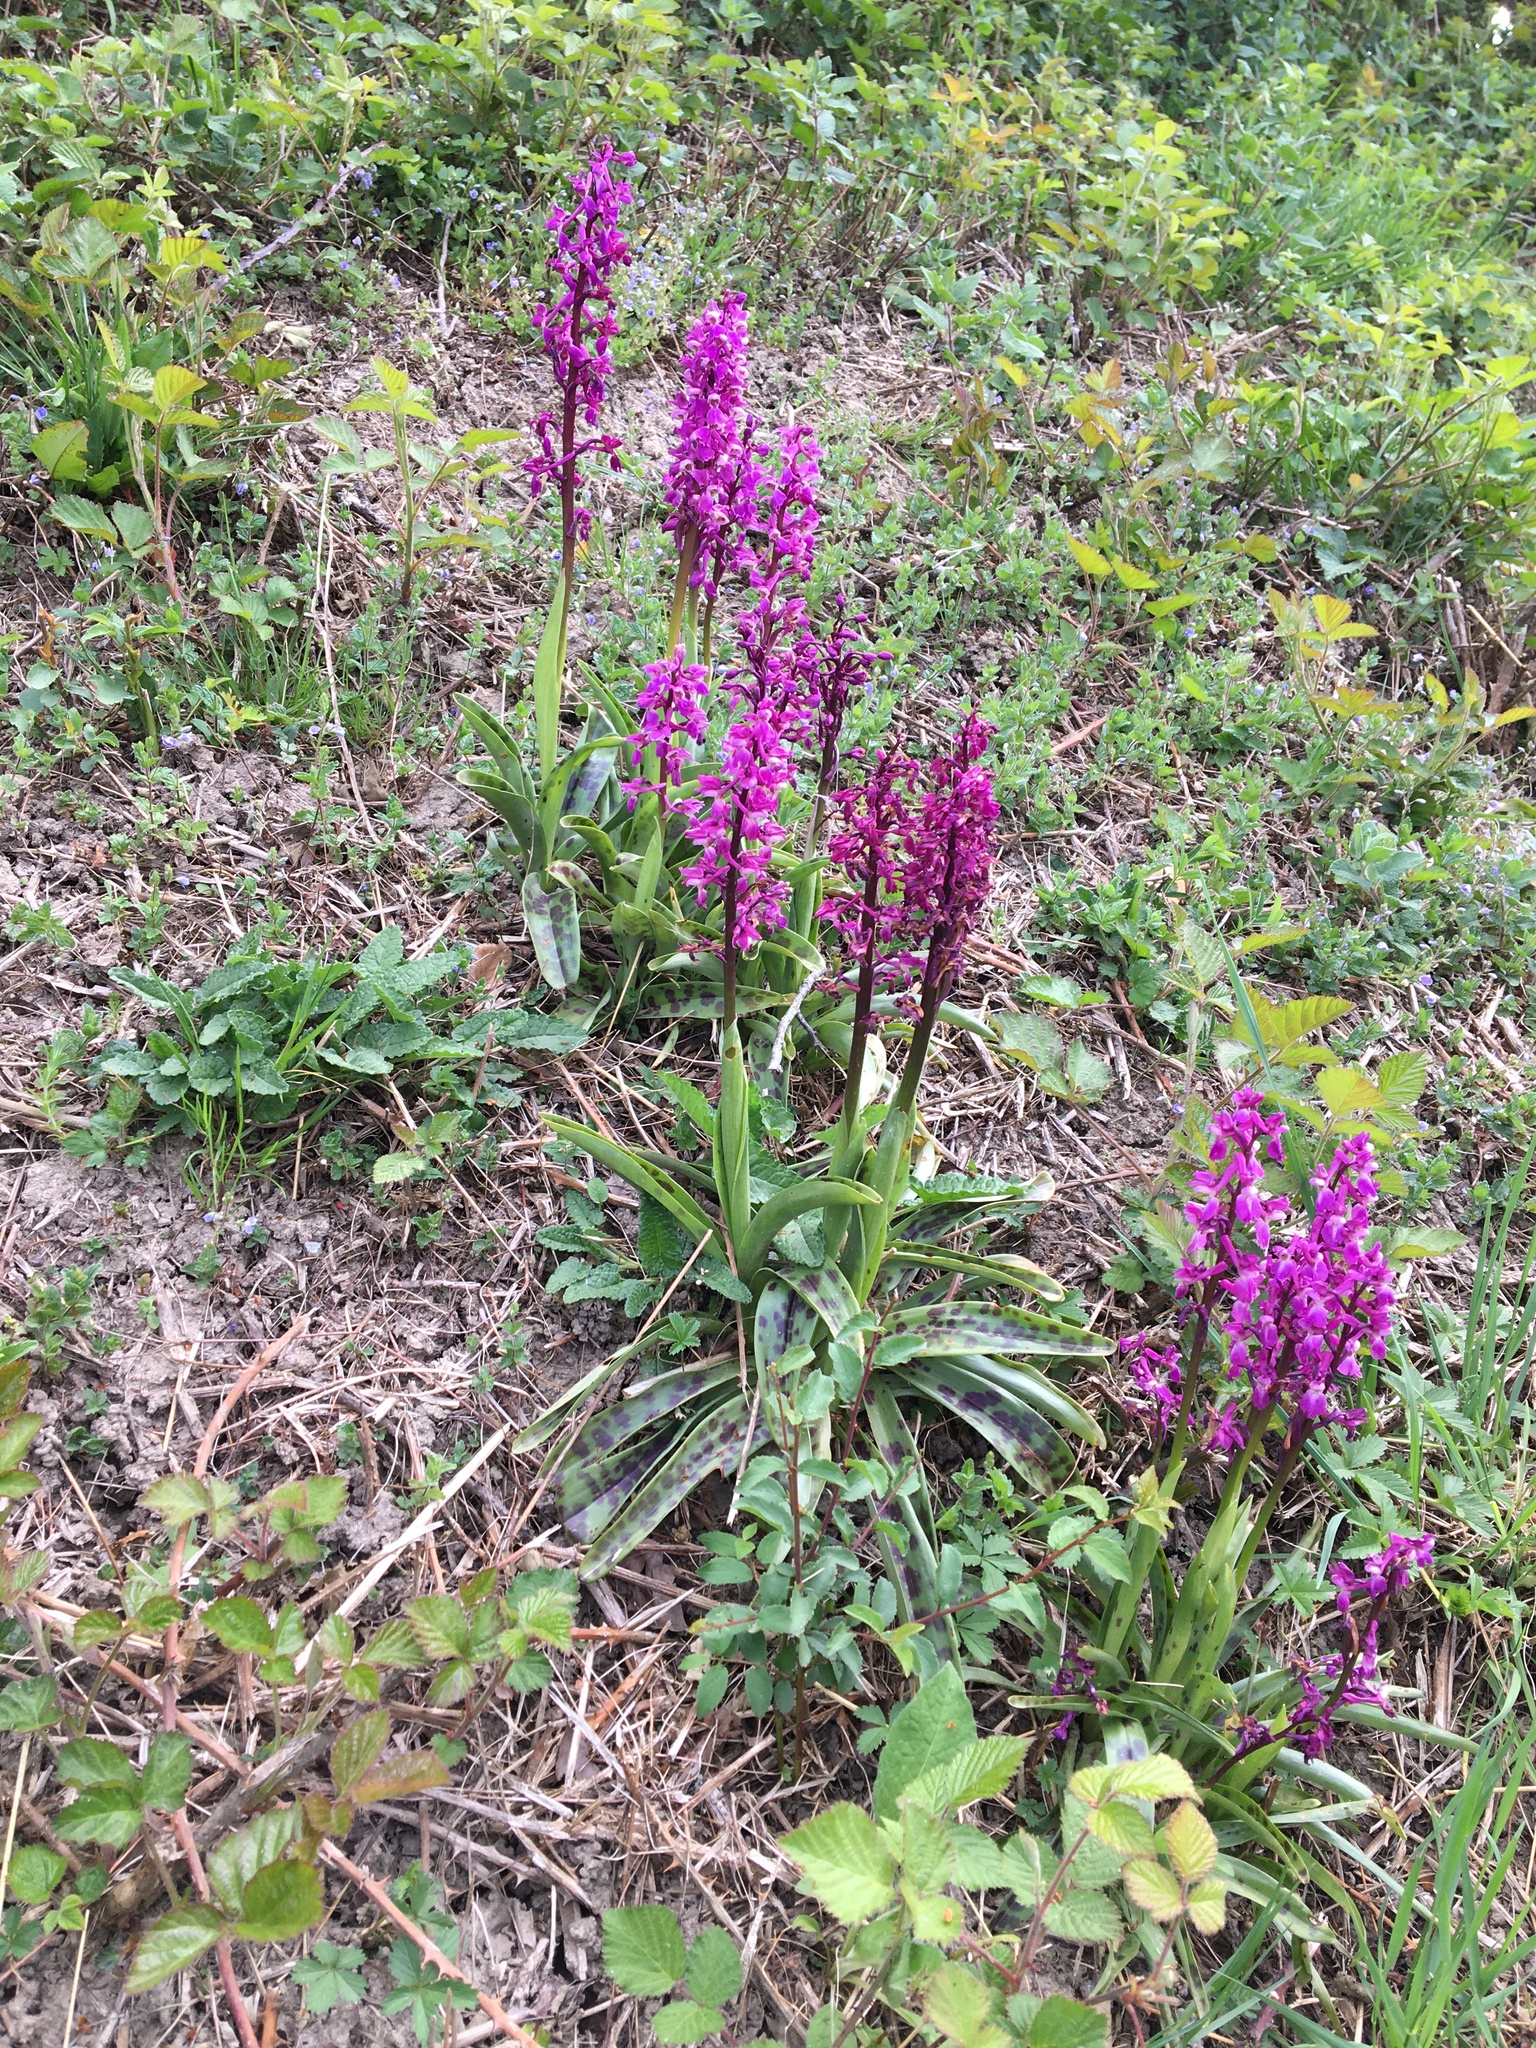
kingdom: Plantae
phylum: Tracheophyta
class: Liliopsida
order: Asparagales
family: Orchidaceae
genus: Orchis
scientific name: Orchis mascula
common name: Early-purple orchid
